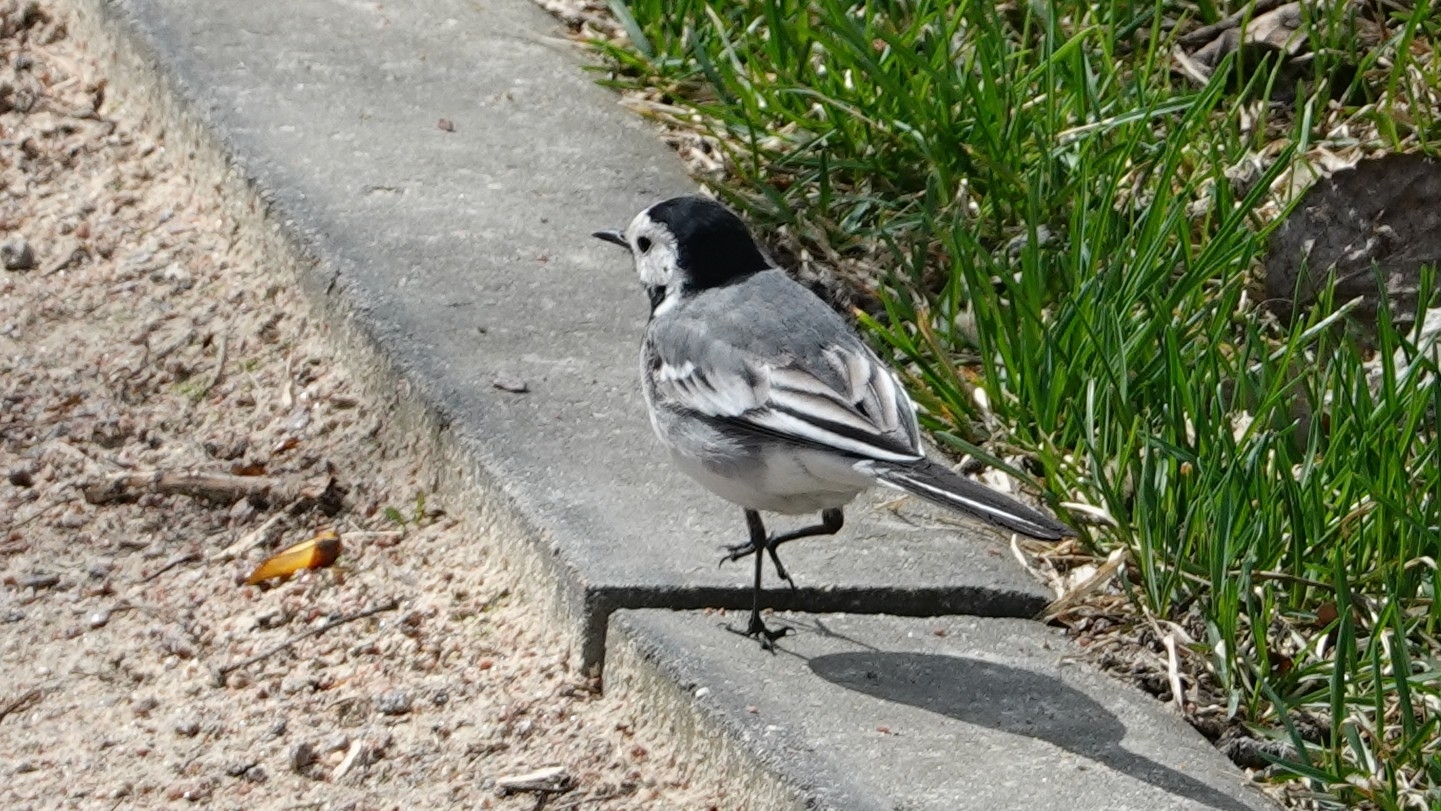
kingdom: Animalia
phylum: Chordata
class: Aves
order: Passeriformes
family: Motacillidae
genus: Motacilla
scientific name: Motacilla alba
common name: White wagtail
